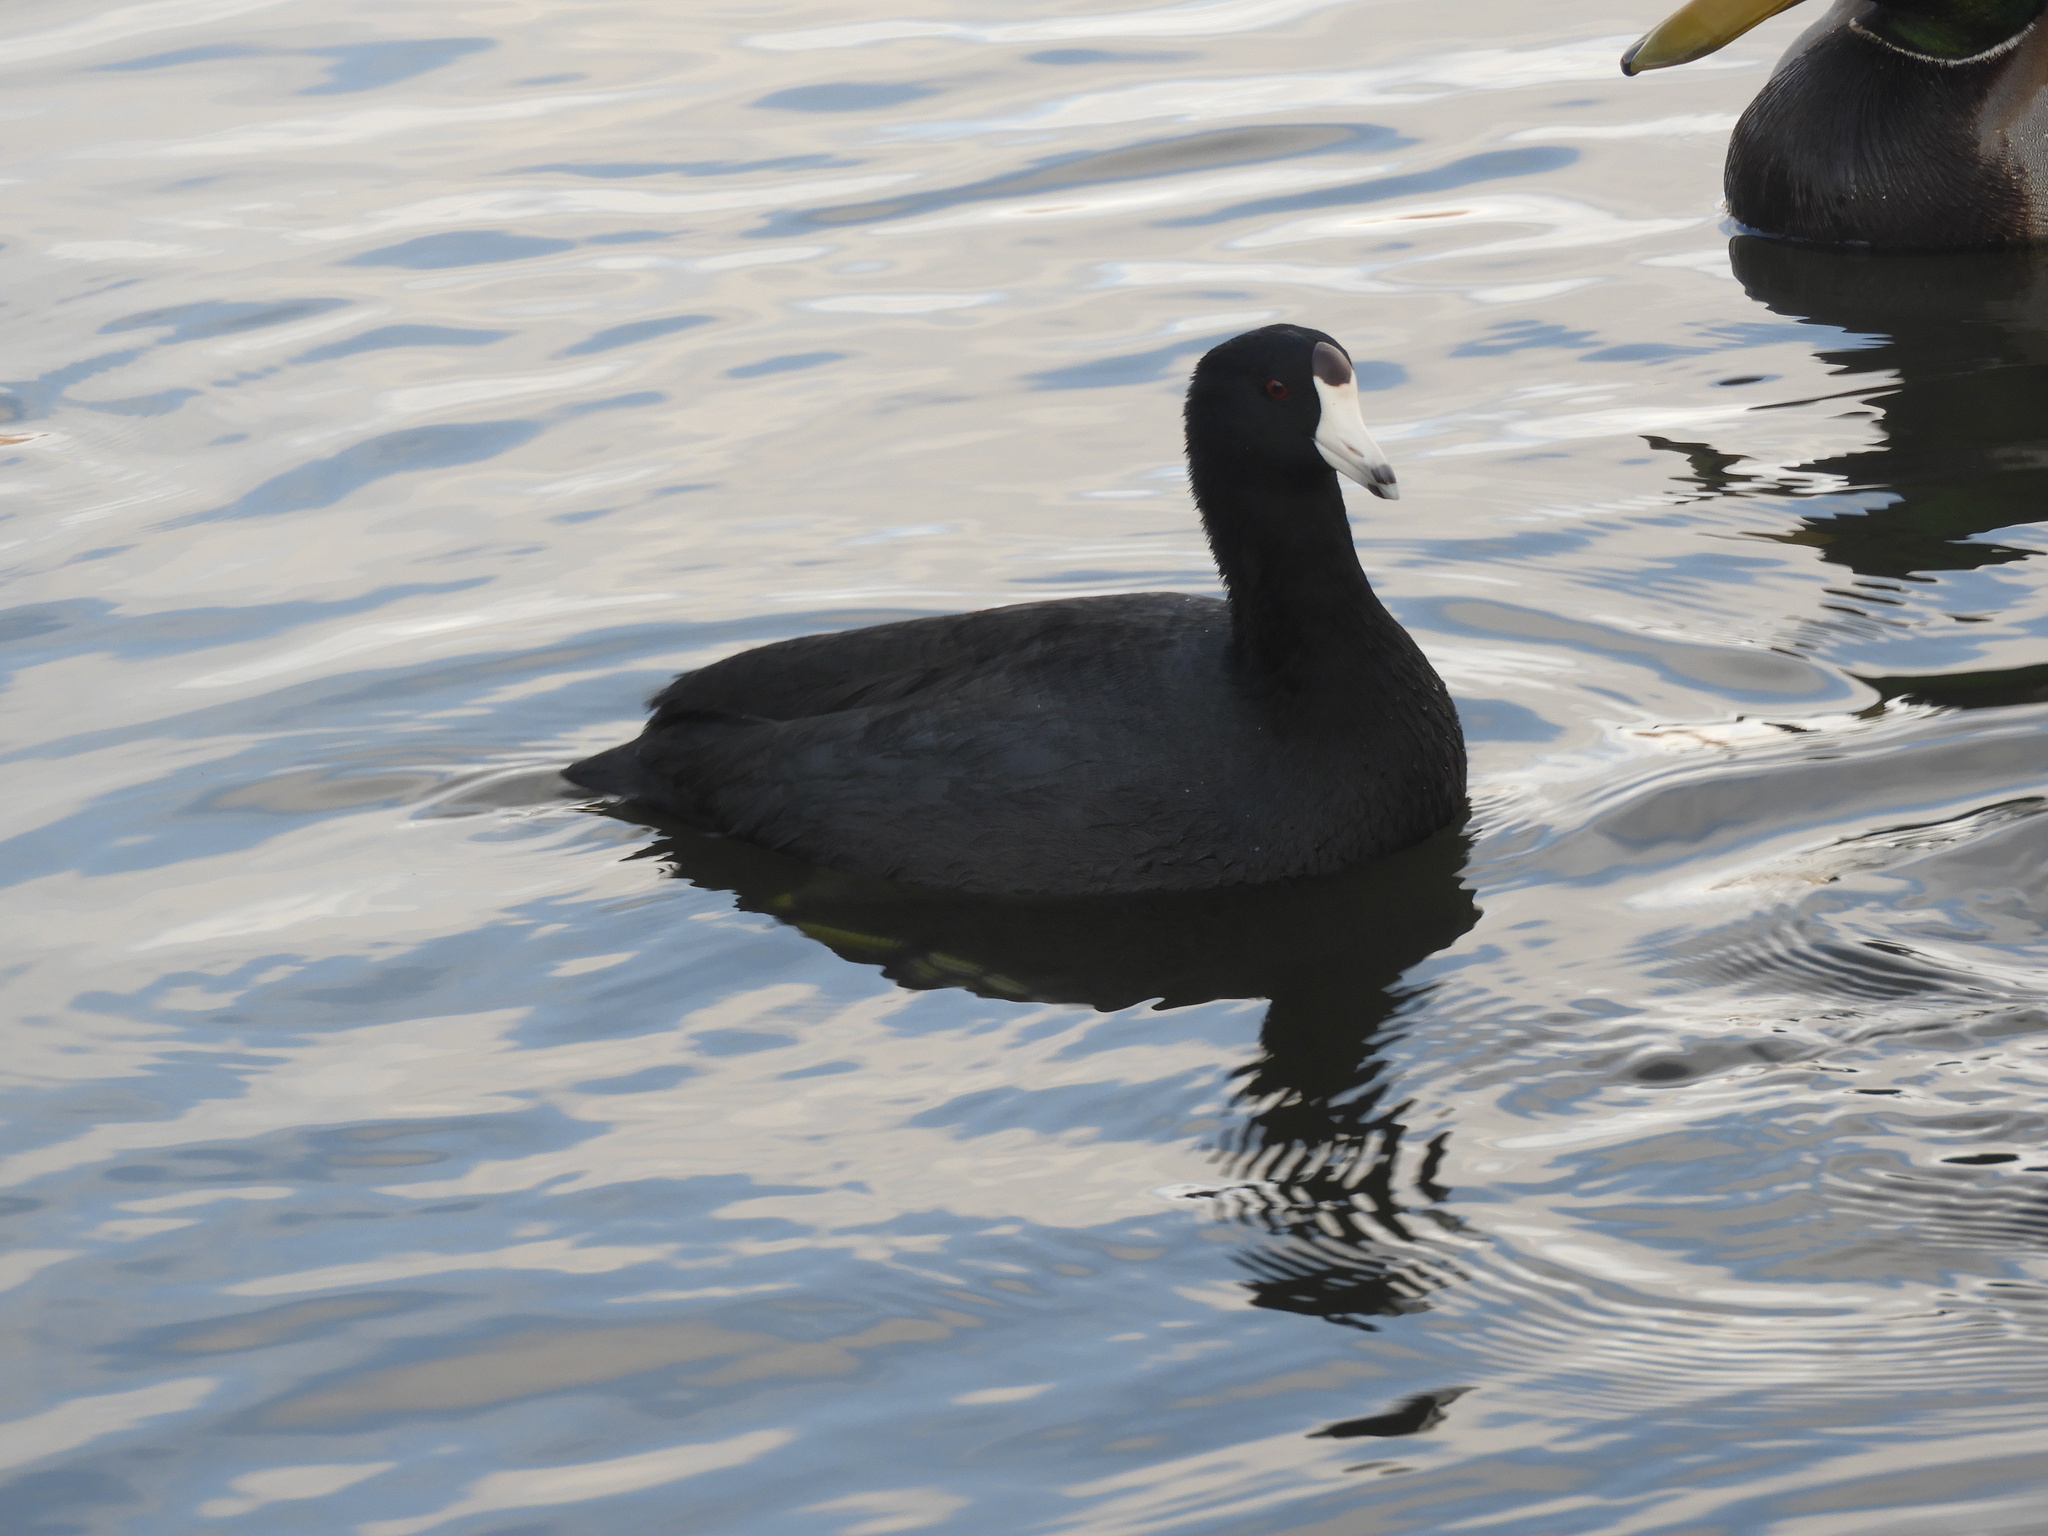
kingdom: Animalia
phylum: Chordata
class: Aves
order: Gruiformes
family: Rallidae
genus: Fulica
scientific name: Fulica americana
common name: American coot
